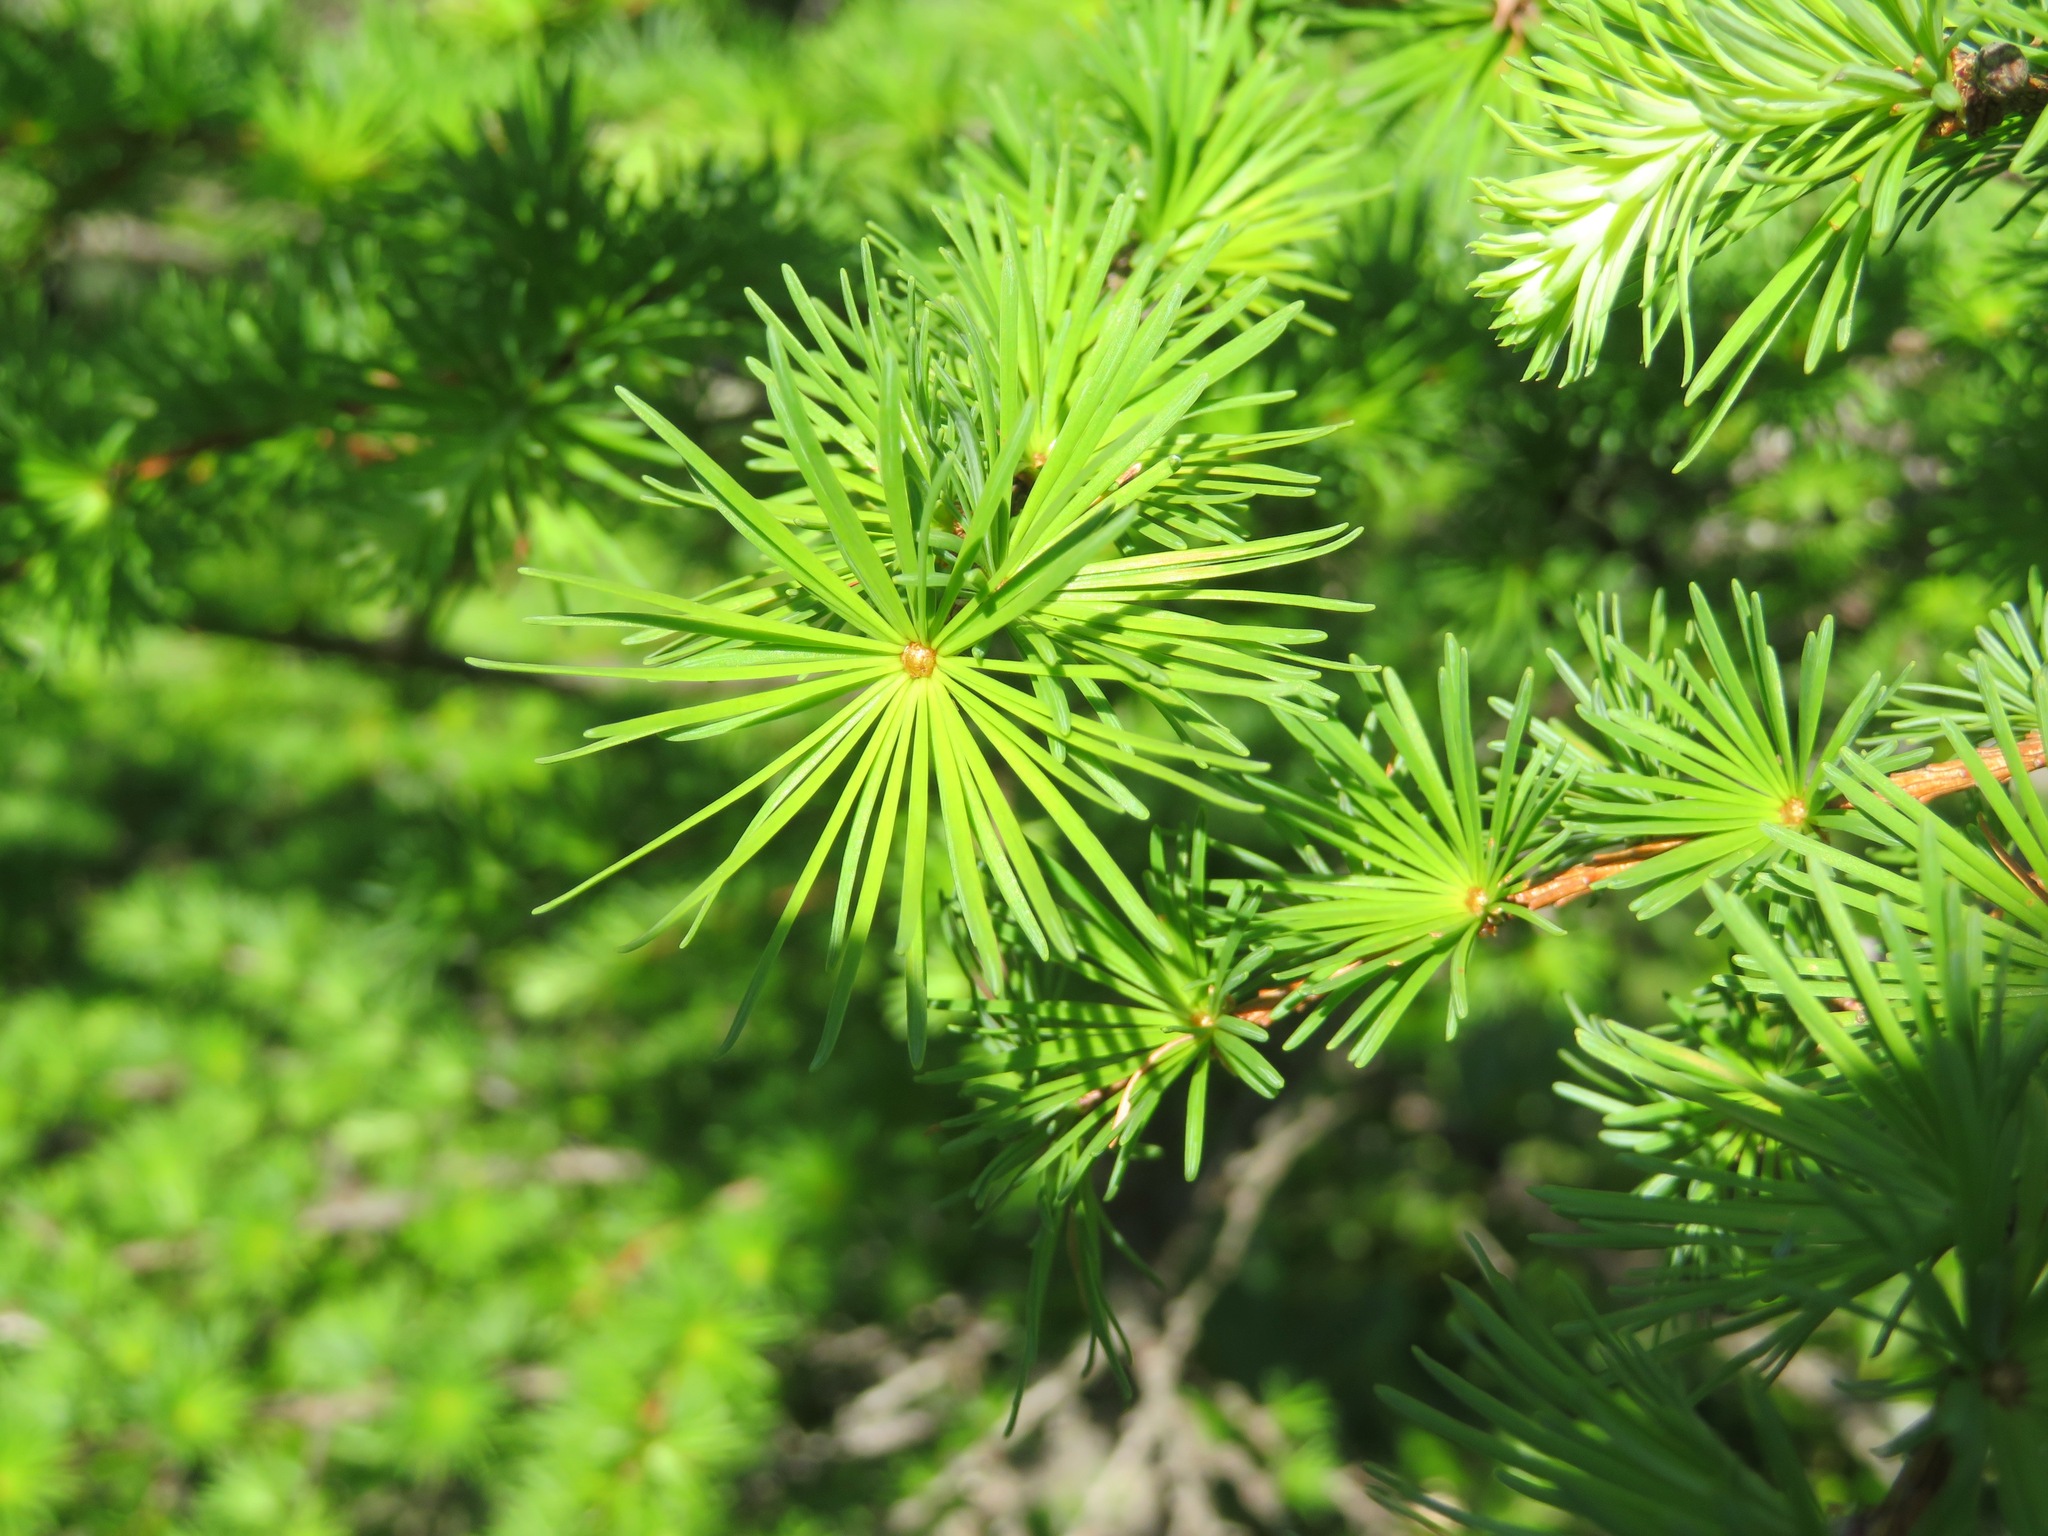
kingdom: Plantae
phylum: Tracheophyta
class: Pinopsida
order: Pinales
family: Pinaceae
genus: Larix
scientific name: Larix kaempferi
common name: Japanese larch
